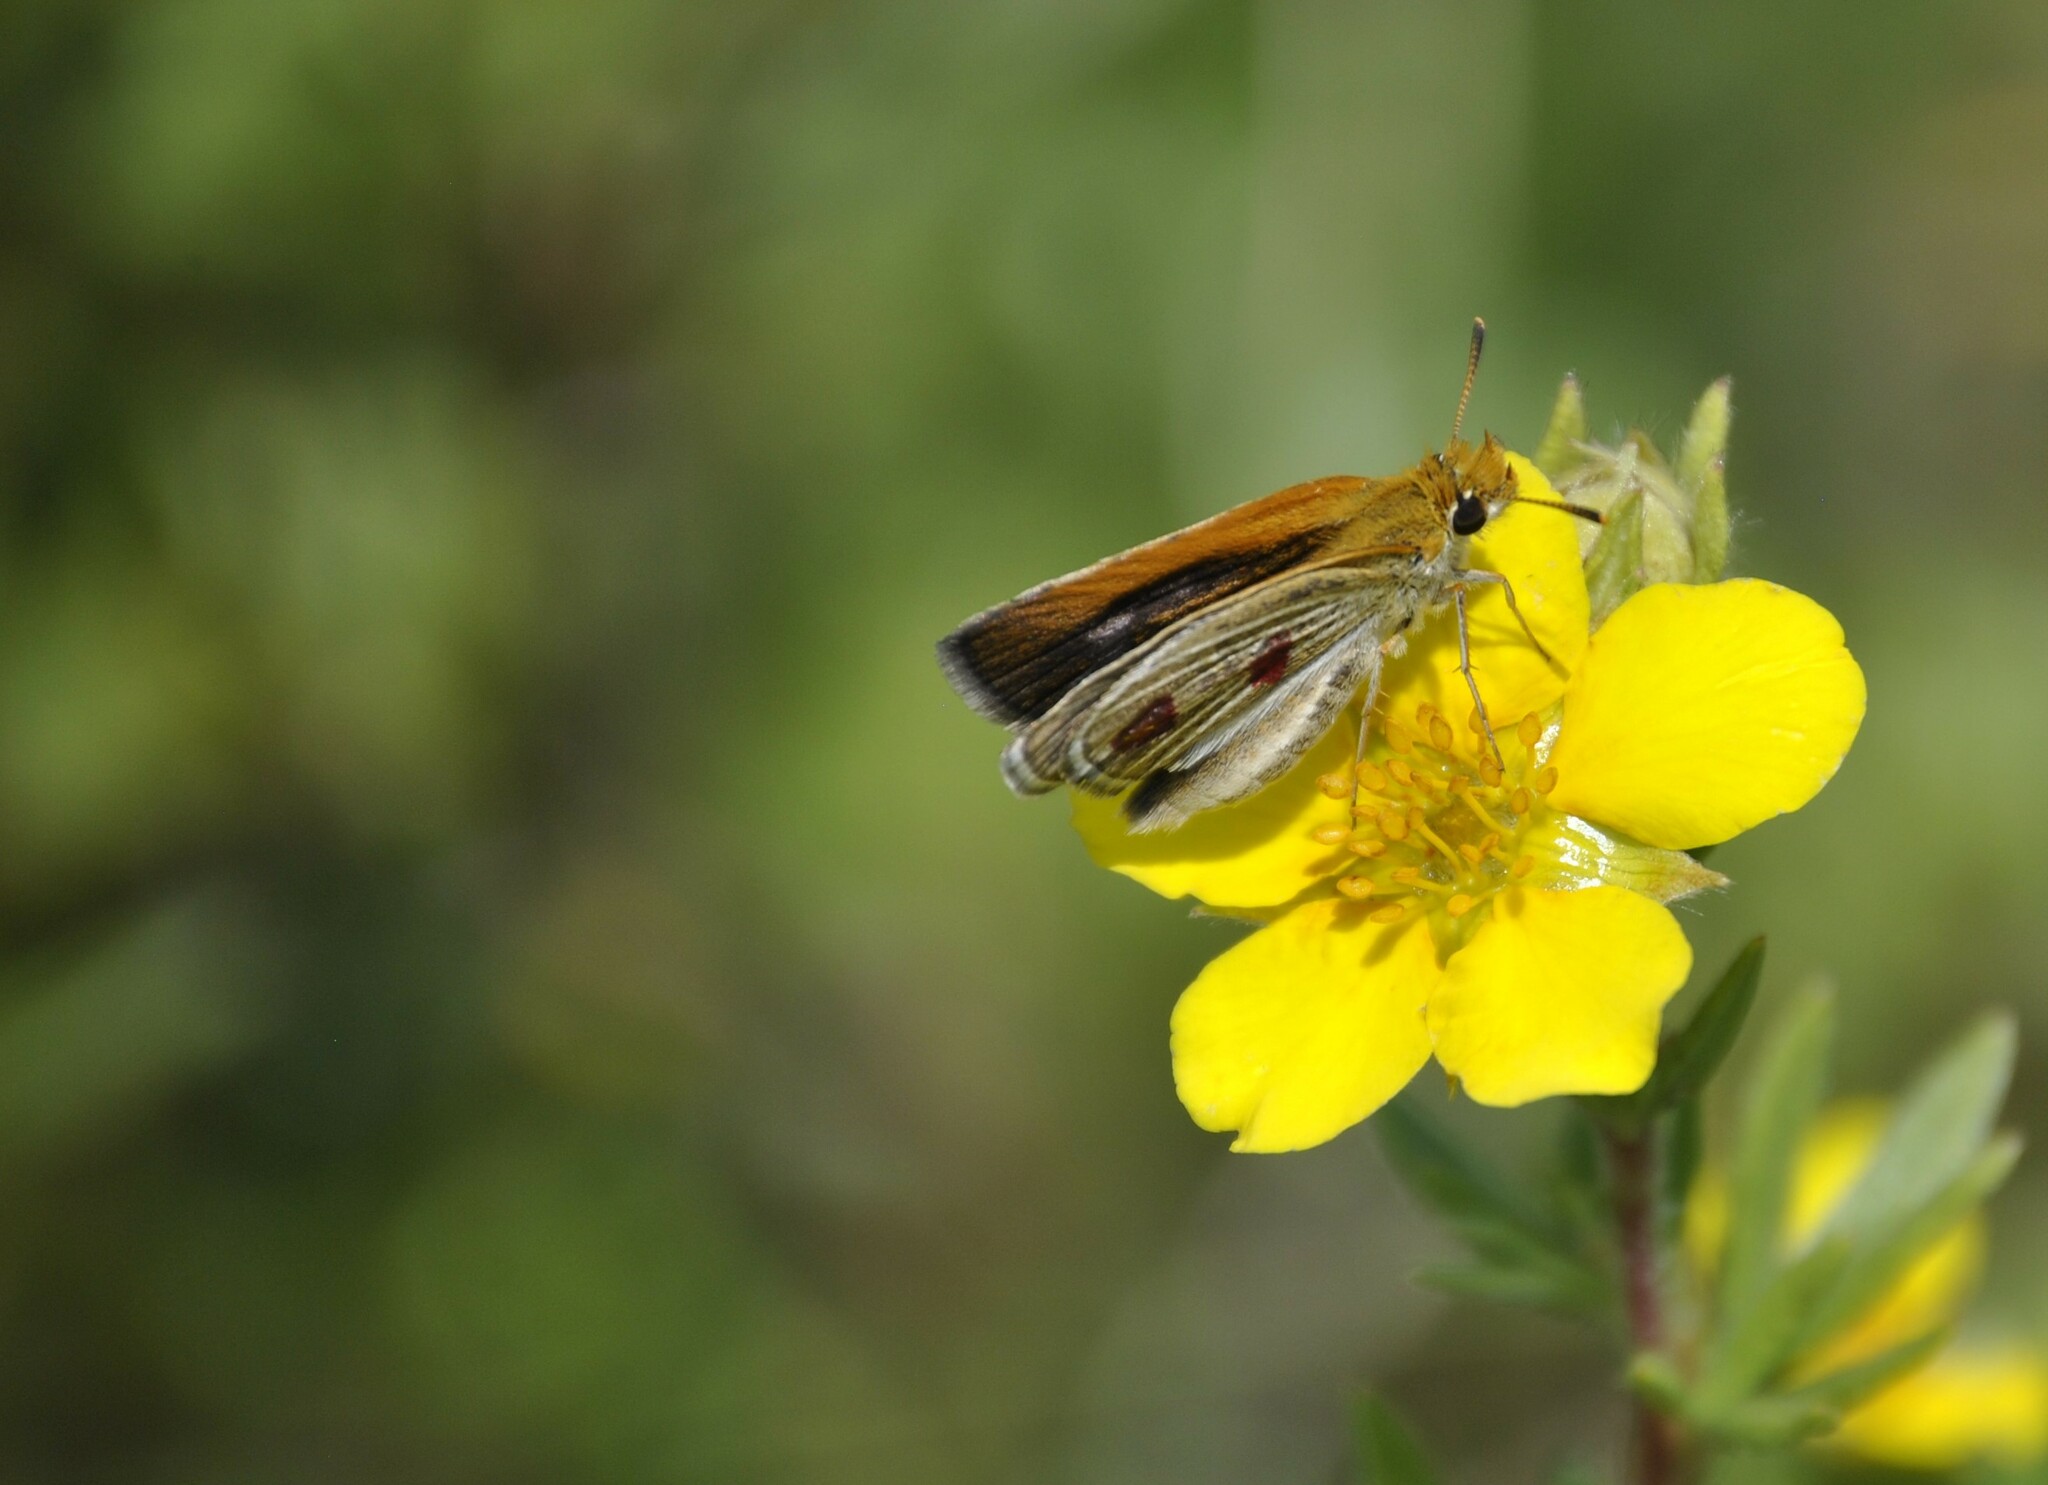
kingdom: Animalia
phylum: Arthropoda
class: Insecta
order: Lepidoptera
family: Hesperiidae
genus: Oarisma
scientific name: Oarisma poweshiek
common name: Poweshiek skipperling
